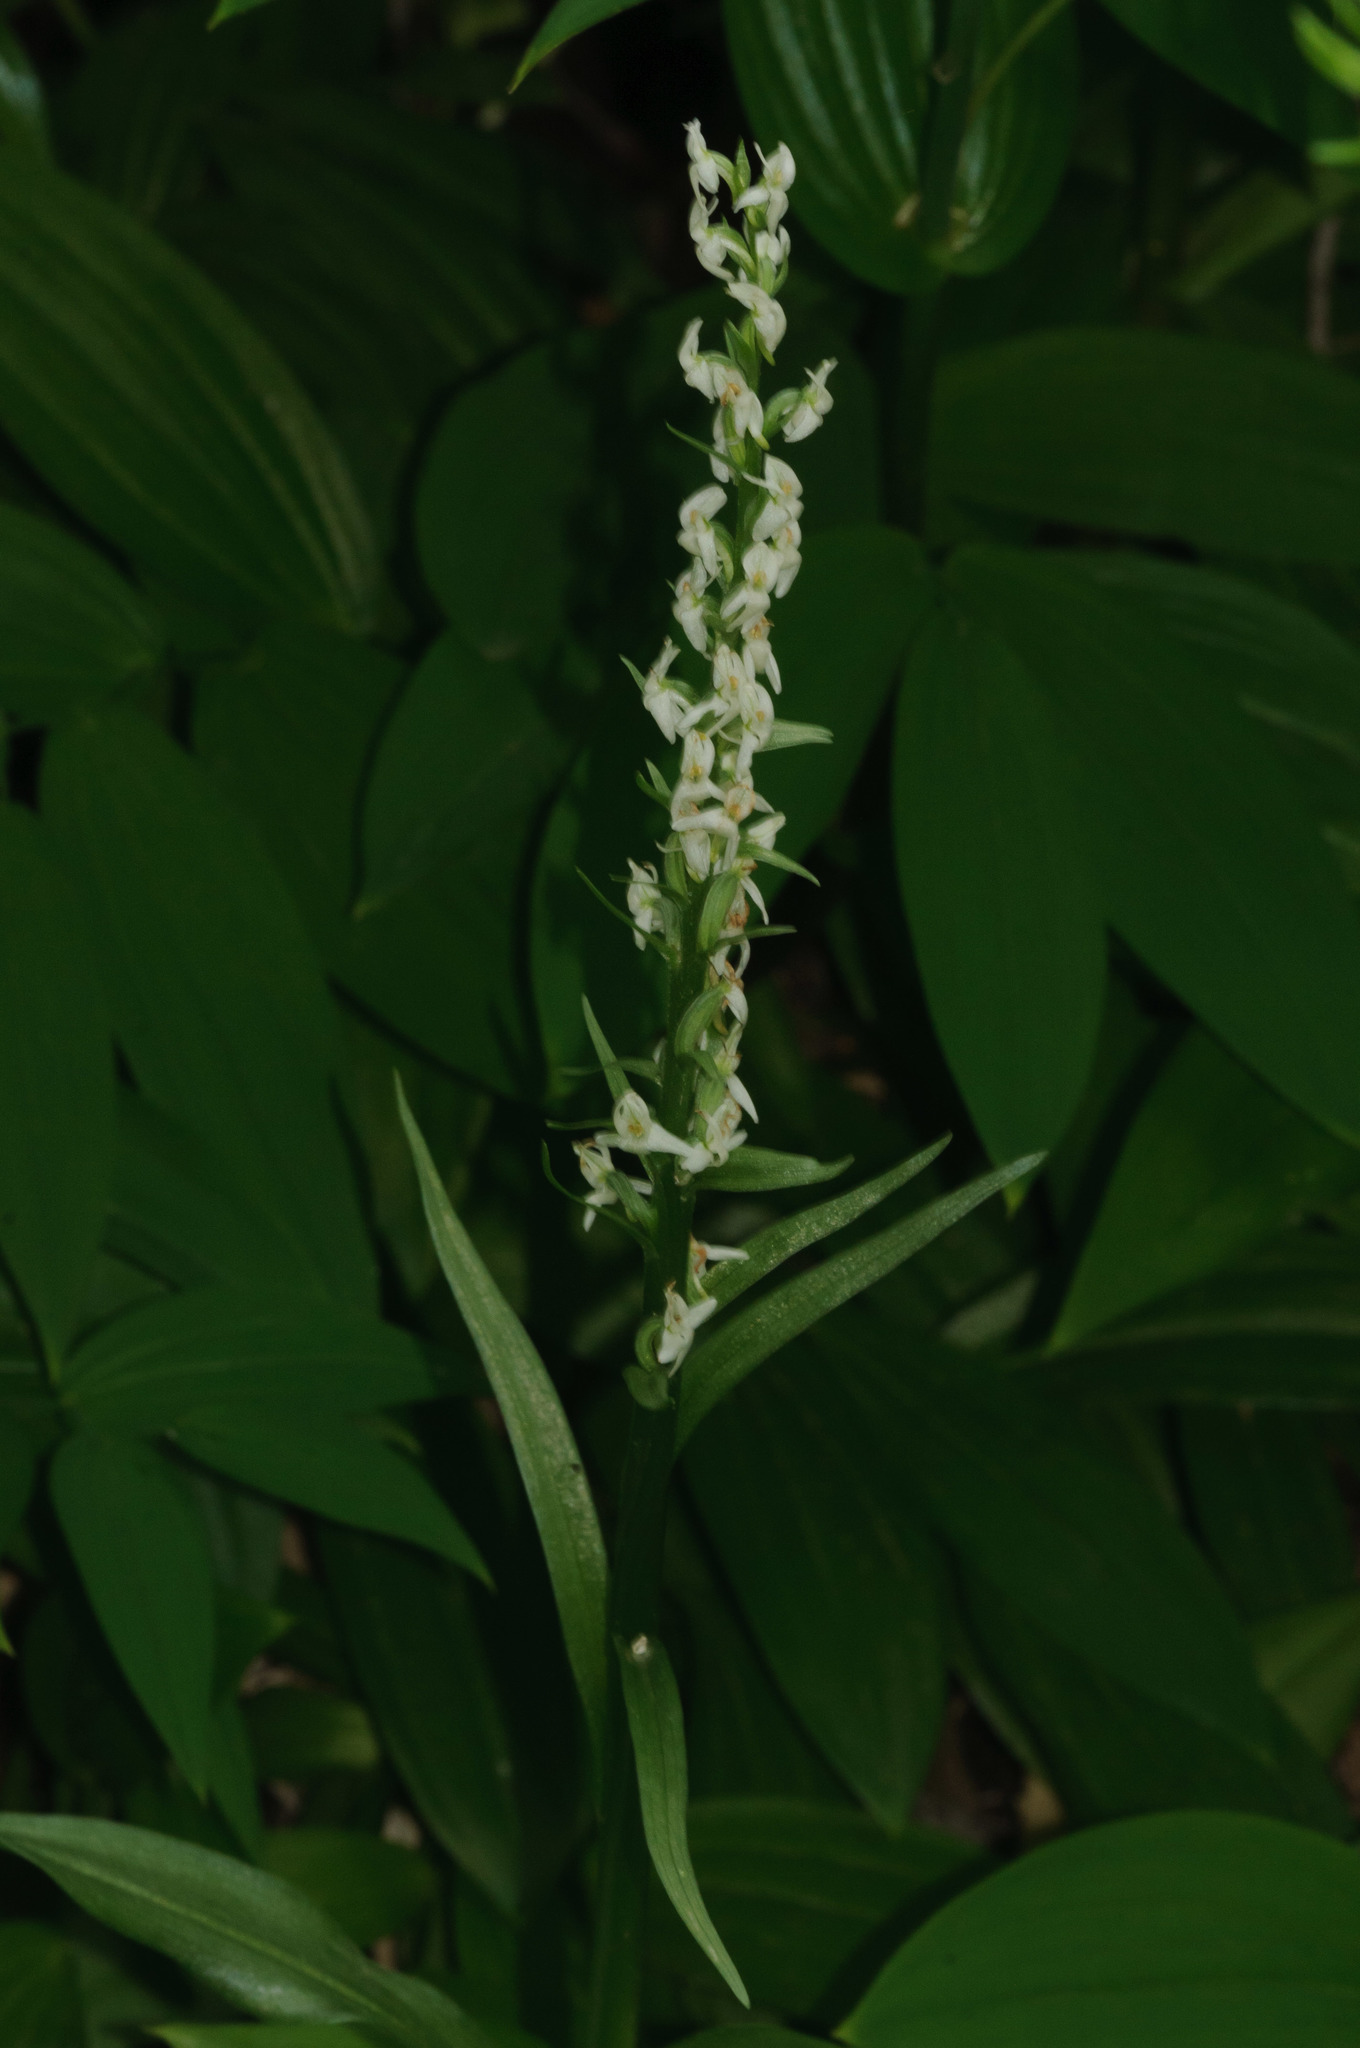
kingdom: Plantae
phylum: Tracheophyta
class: Liliopsida
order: Asparagales
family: Orchidaceae
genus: Platanthera
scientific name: Platanthera dilatata
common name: Bog candles
